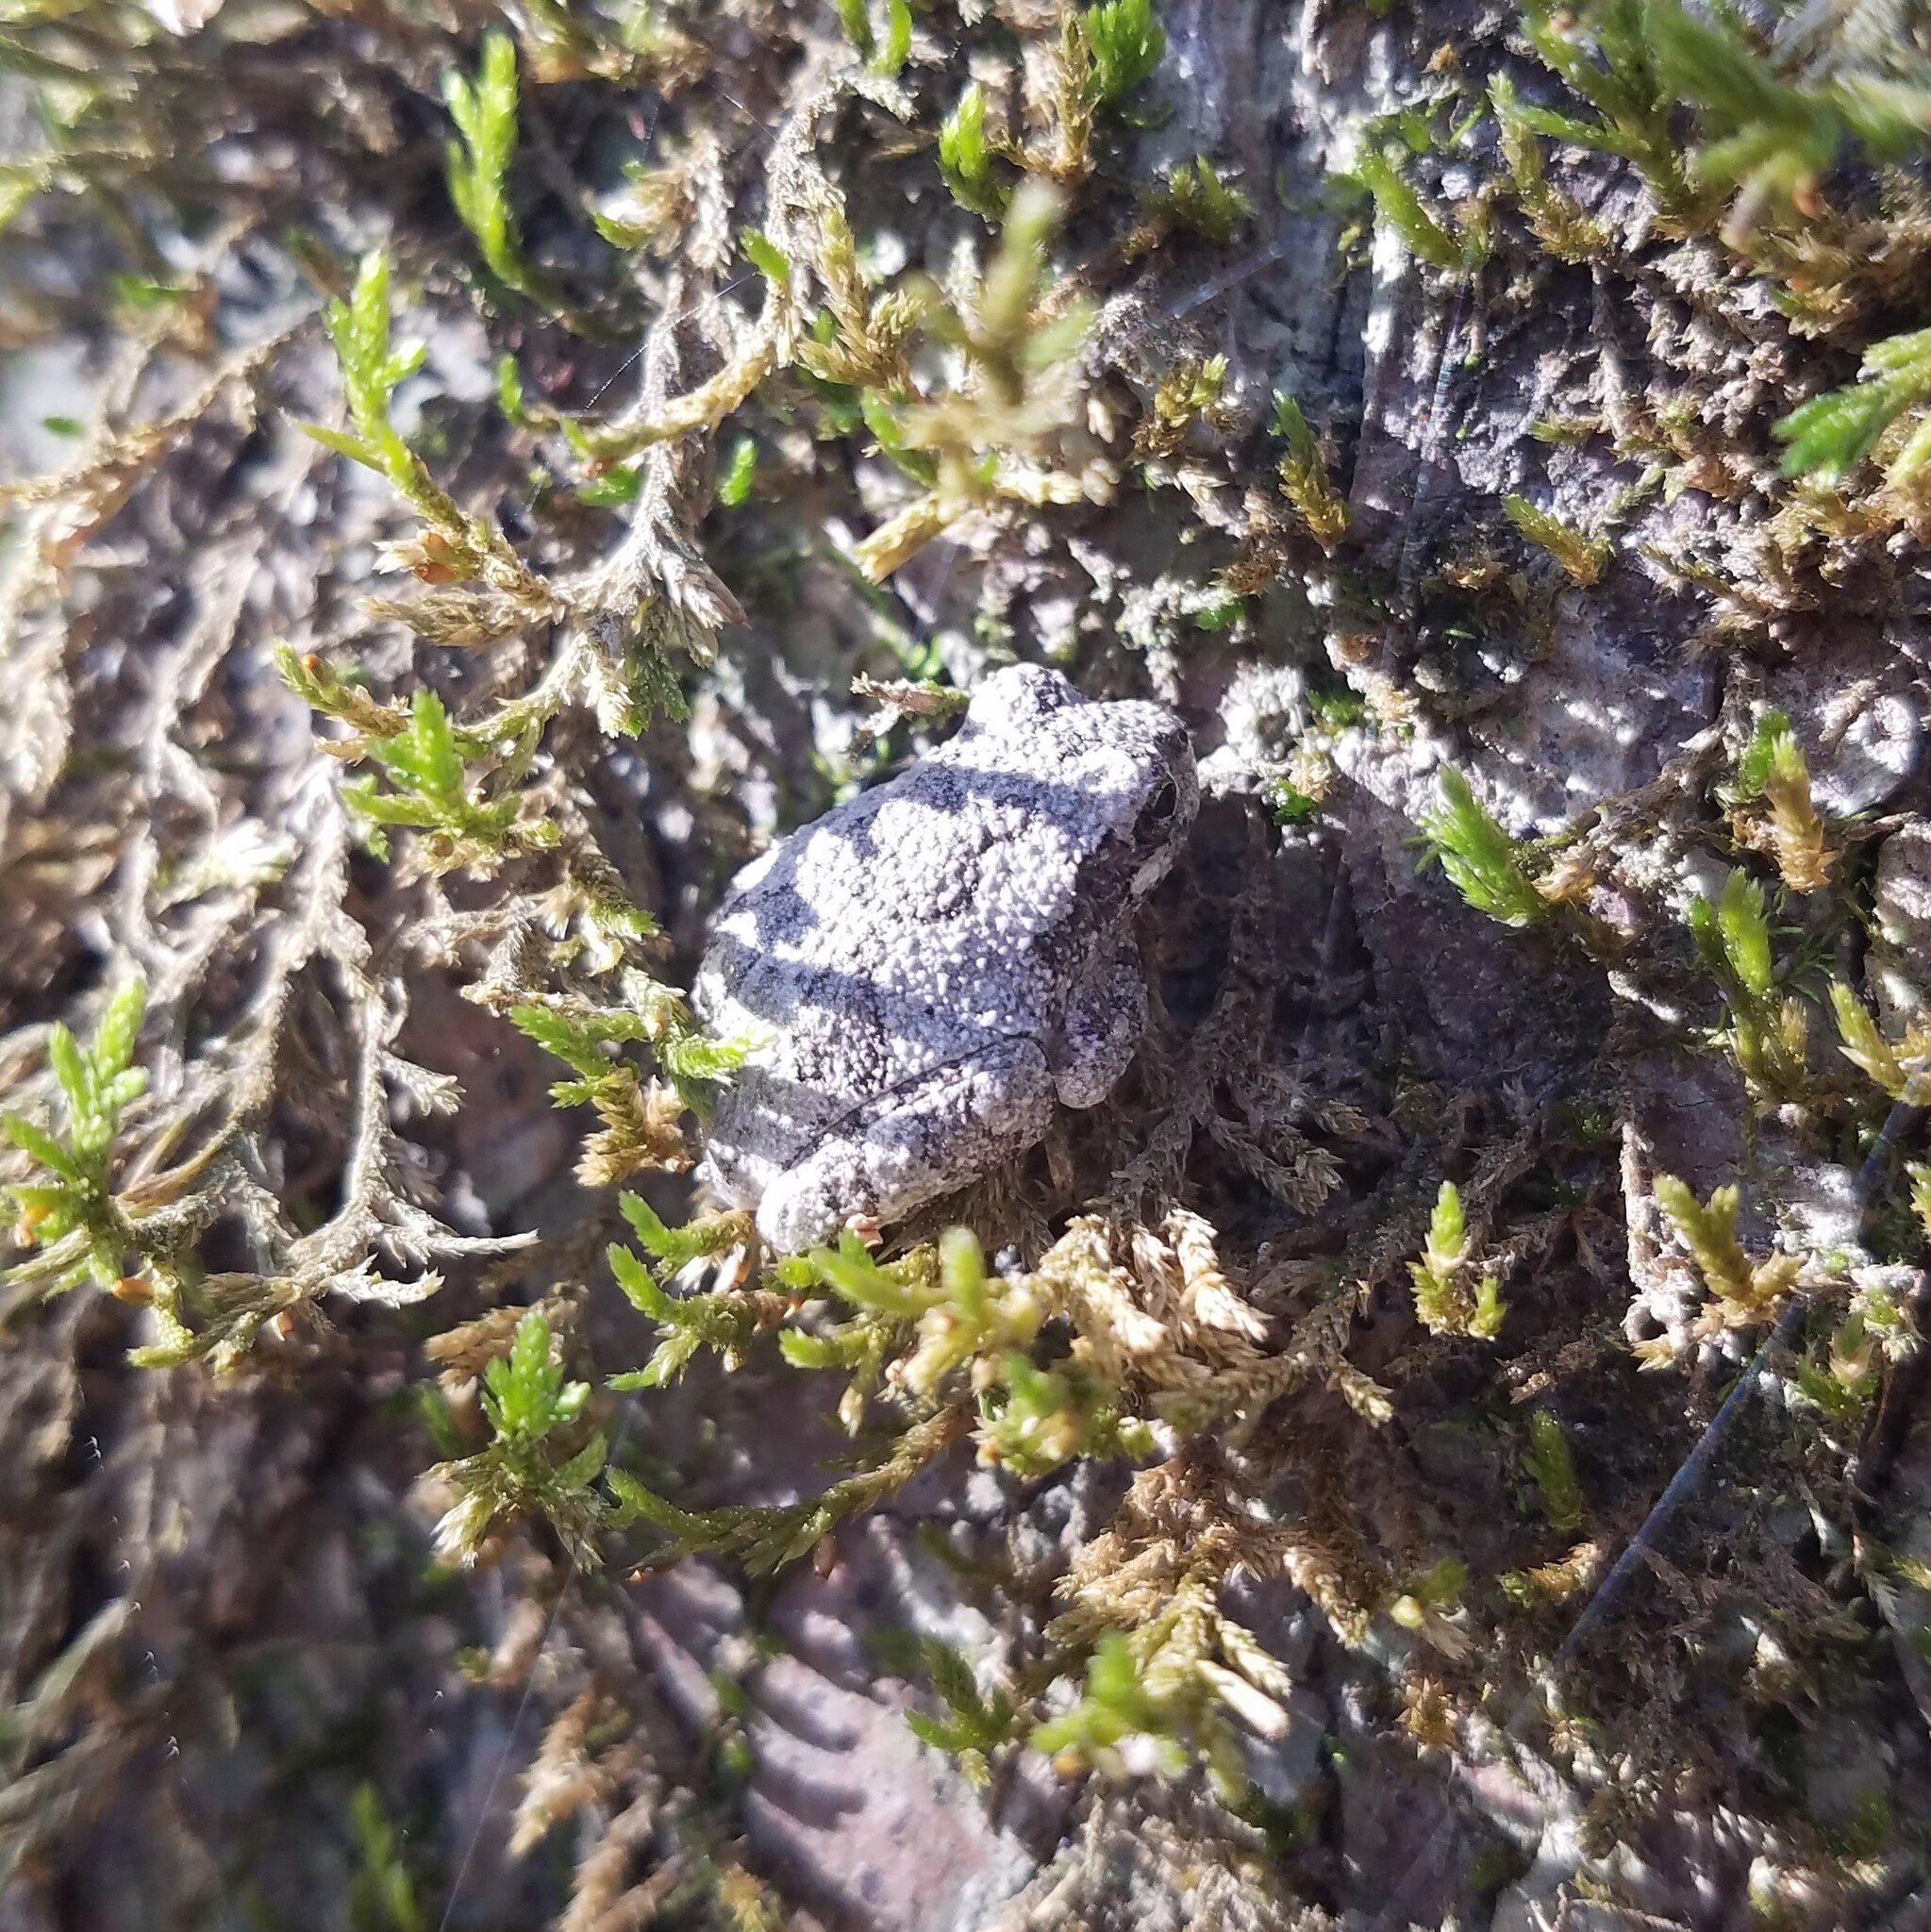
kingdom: Animalia
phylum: Chordata
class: Amphibia
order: Anura
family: Hylidae
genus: Dryophytes
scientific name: Dryophytes chrysoscelis
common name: Cope's gray treefrog
